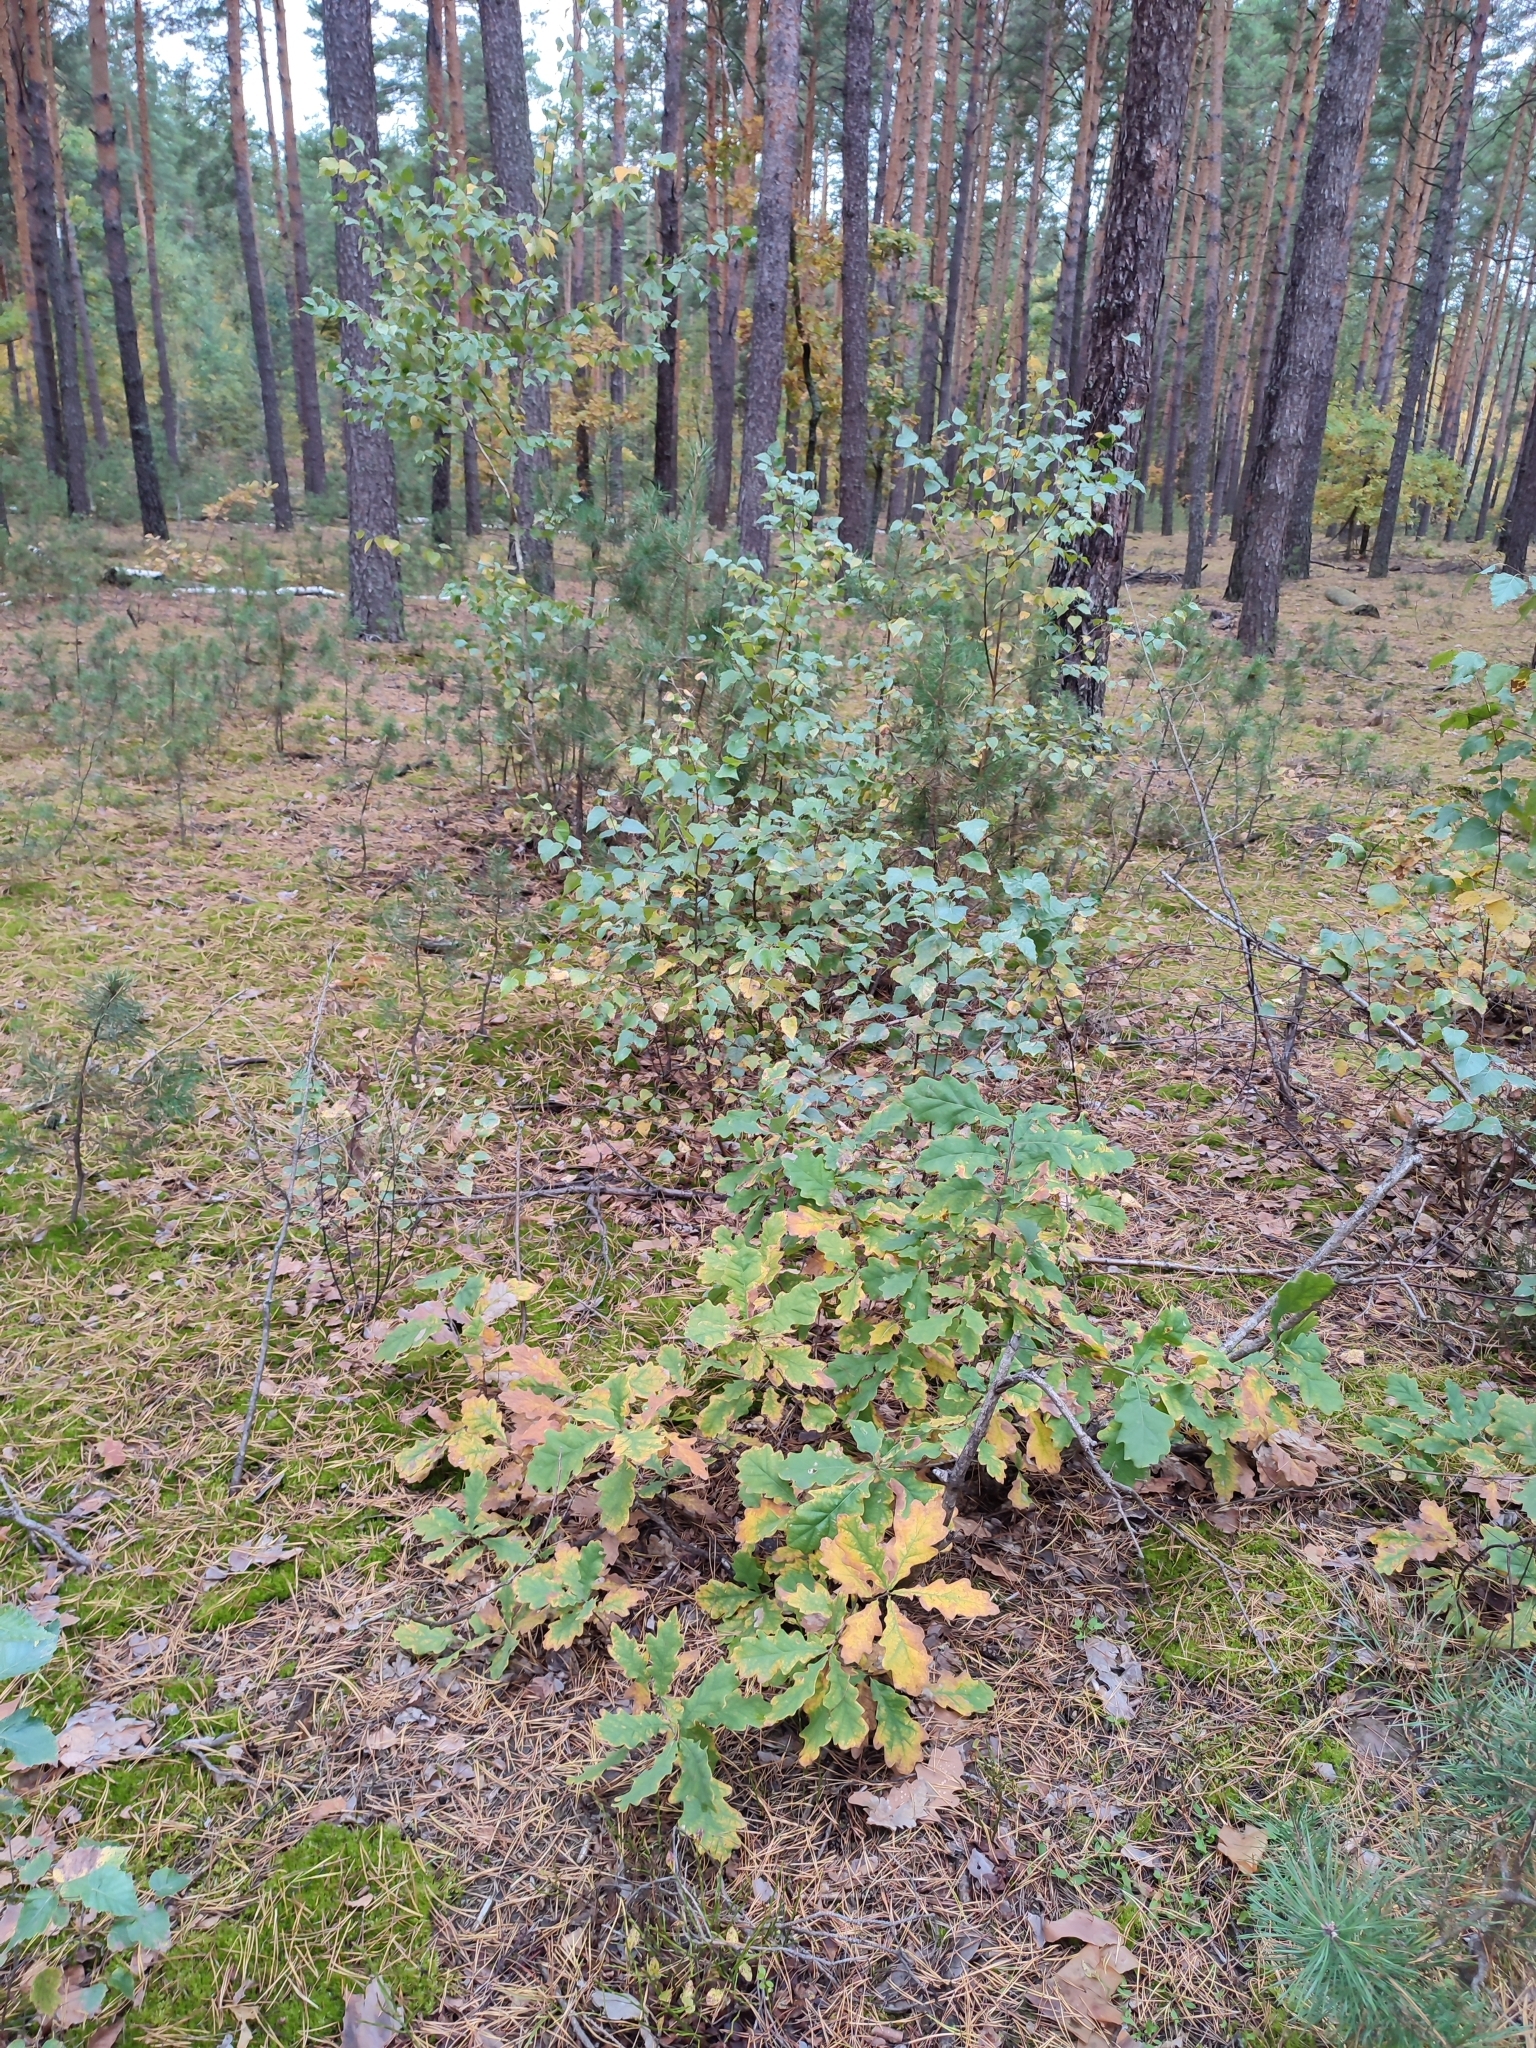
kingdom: Plantae
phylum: Tracheophyta
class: Magnoliopsida
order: Fagales
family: Fagaceae
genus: Quercus
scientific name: Quercus robur
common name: Pedunculate oak
